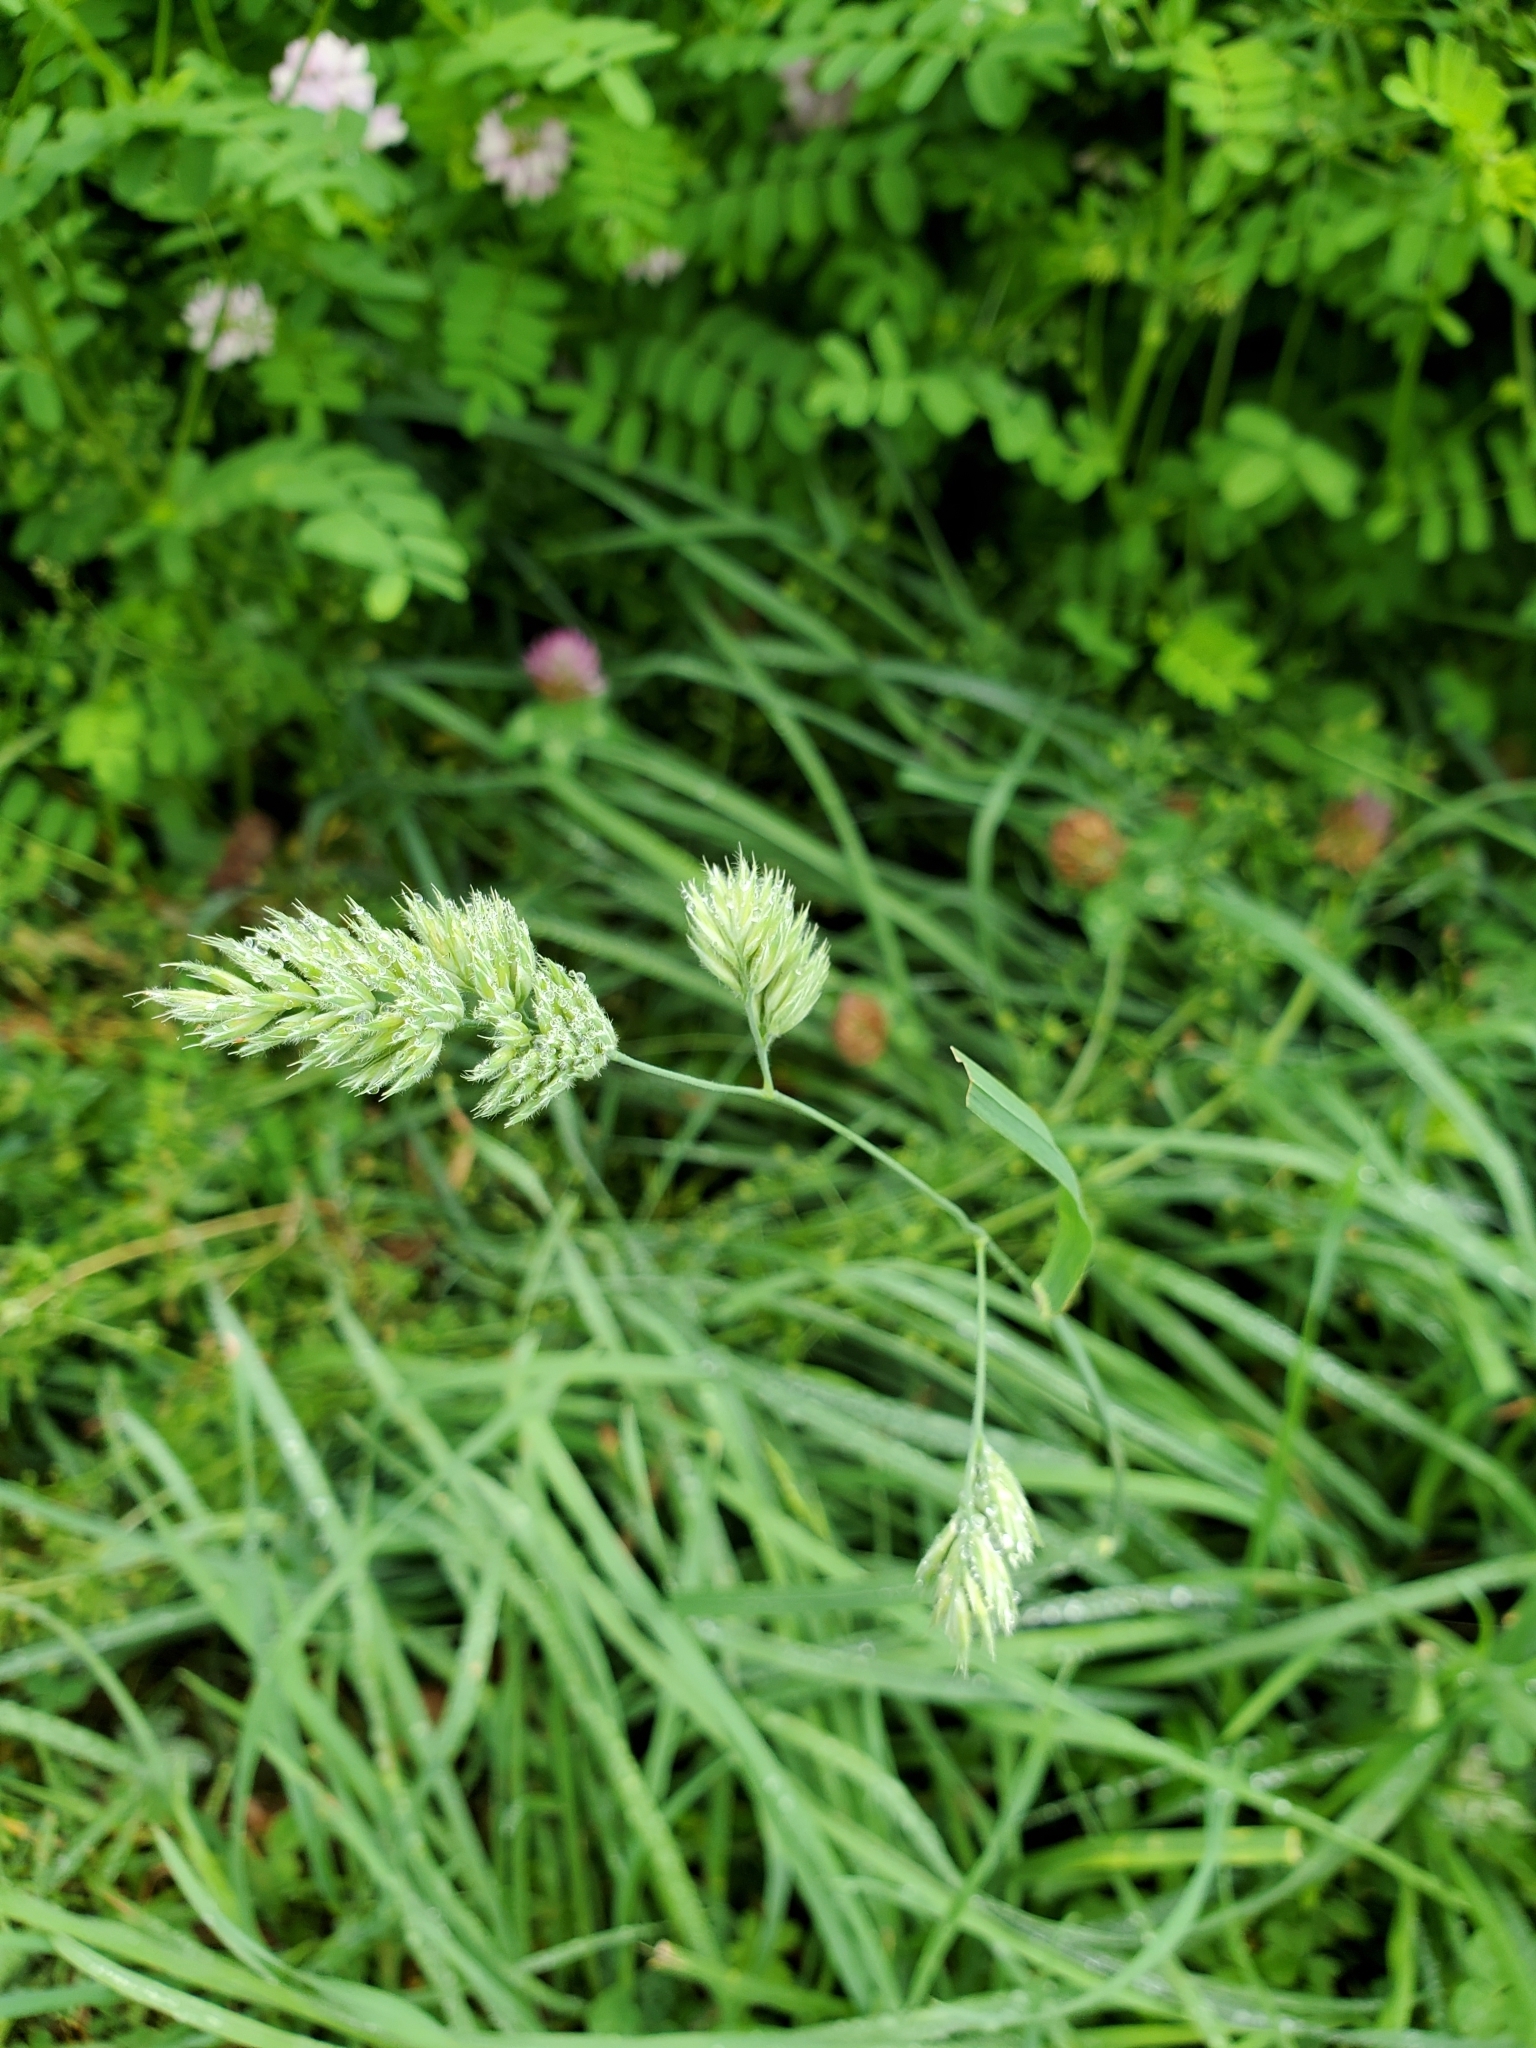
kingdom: Plantae
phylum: Tracheophyta
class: Liliopsida
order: Poales
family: Poaceae
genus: Dactylis
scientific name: Dactylis glomerata
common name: Orchardgrass
